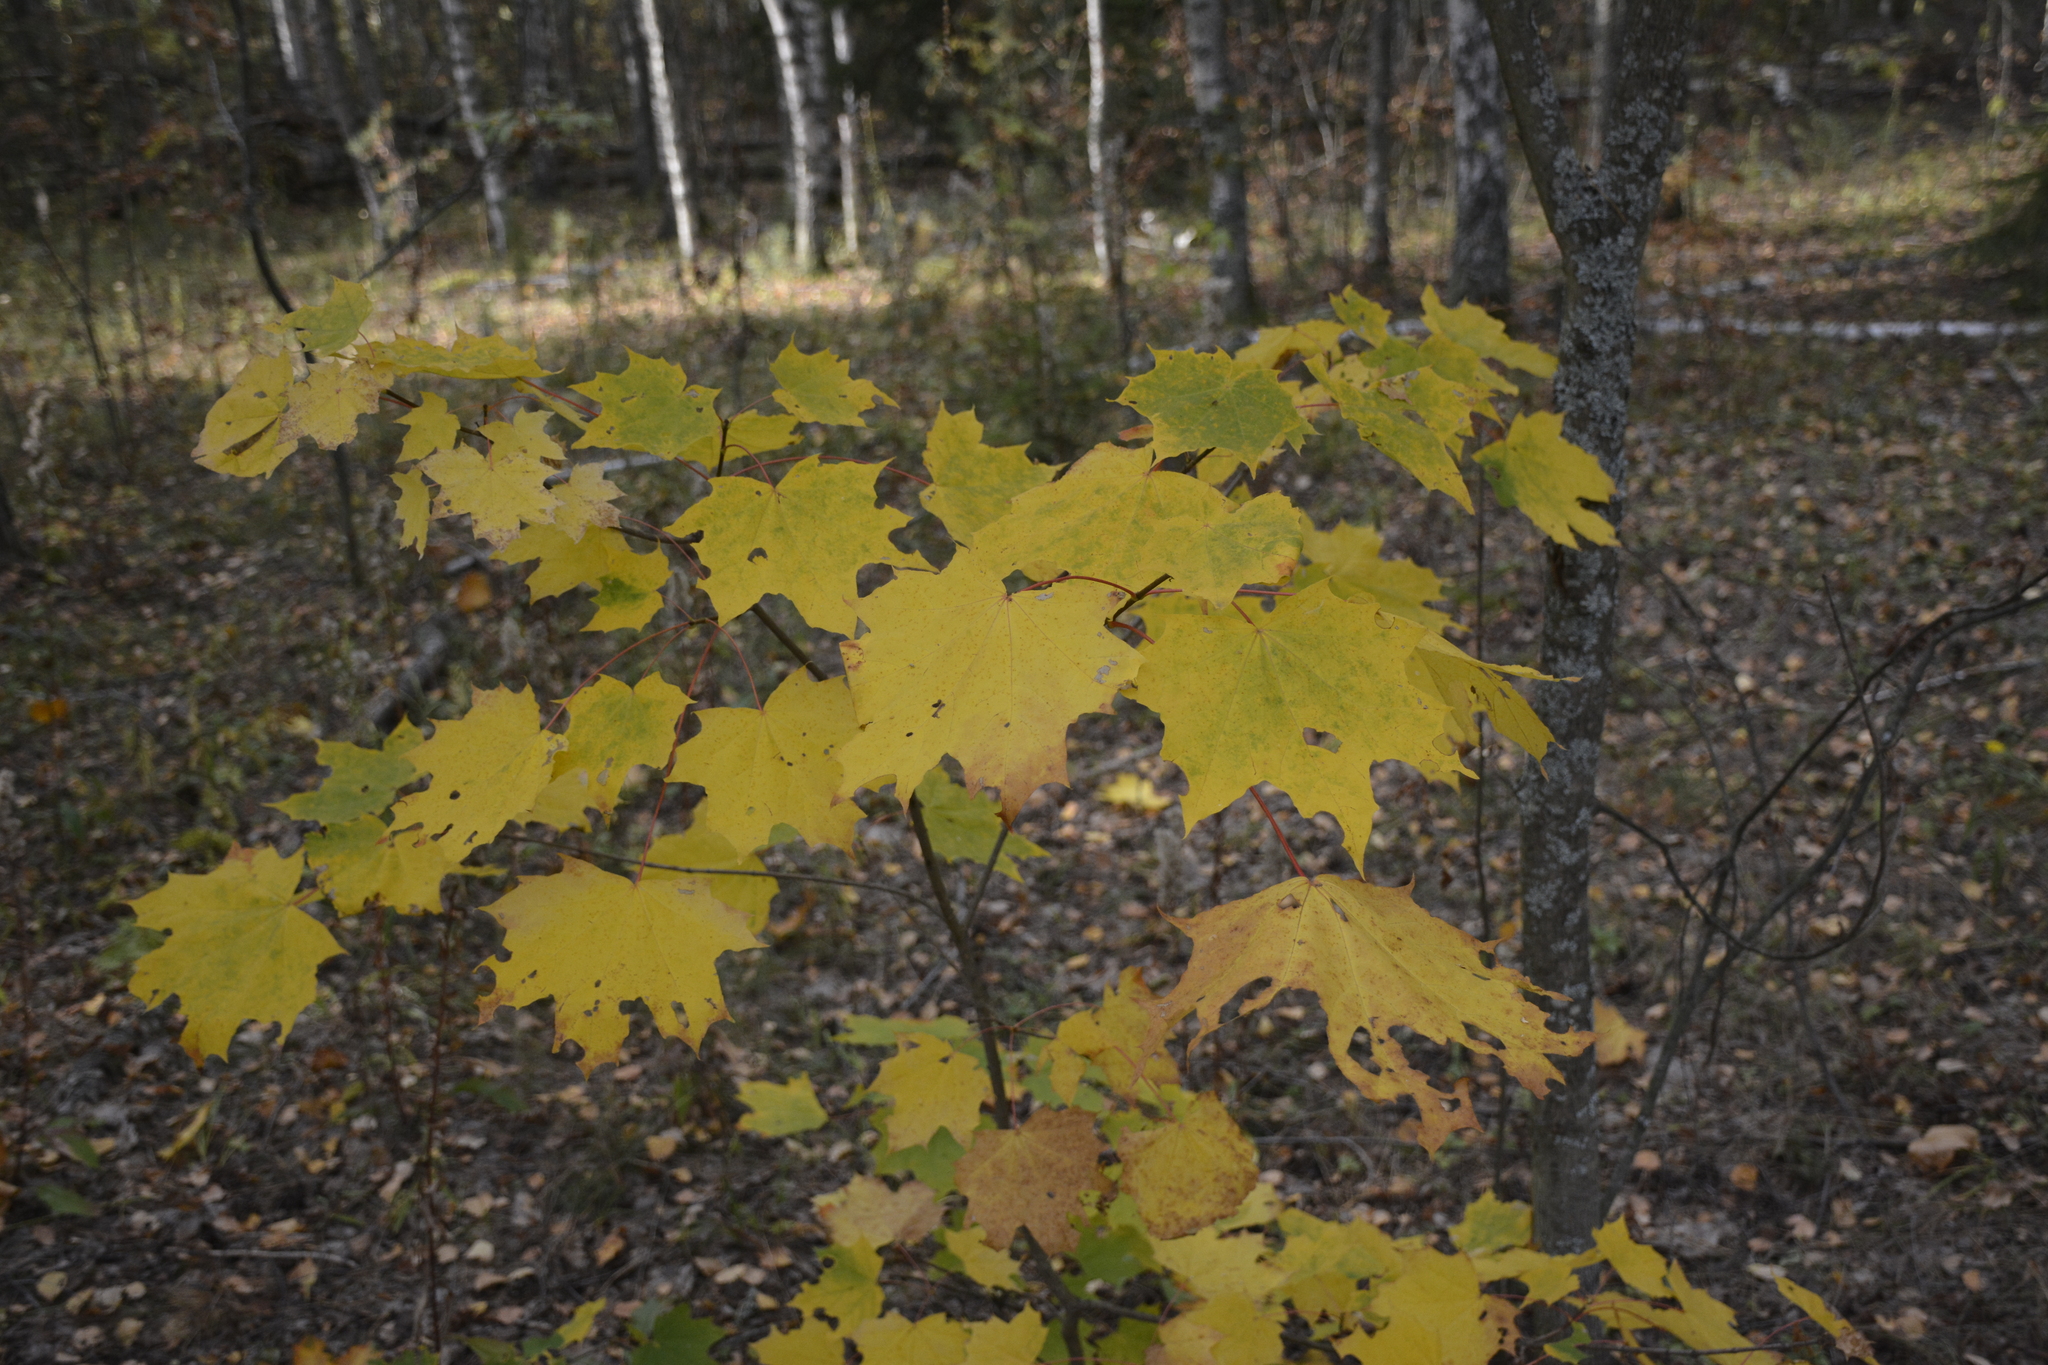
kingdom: Plantae
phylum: Tracheophyta
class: Magnoliopsida
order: Sapindales
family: Sapindaceae
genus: Acer
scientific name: Acer platanoides
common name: Norway maple
